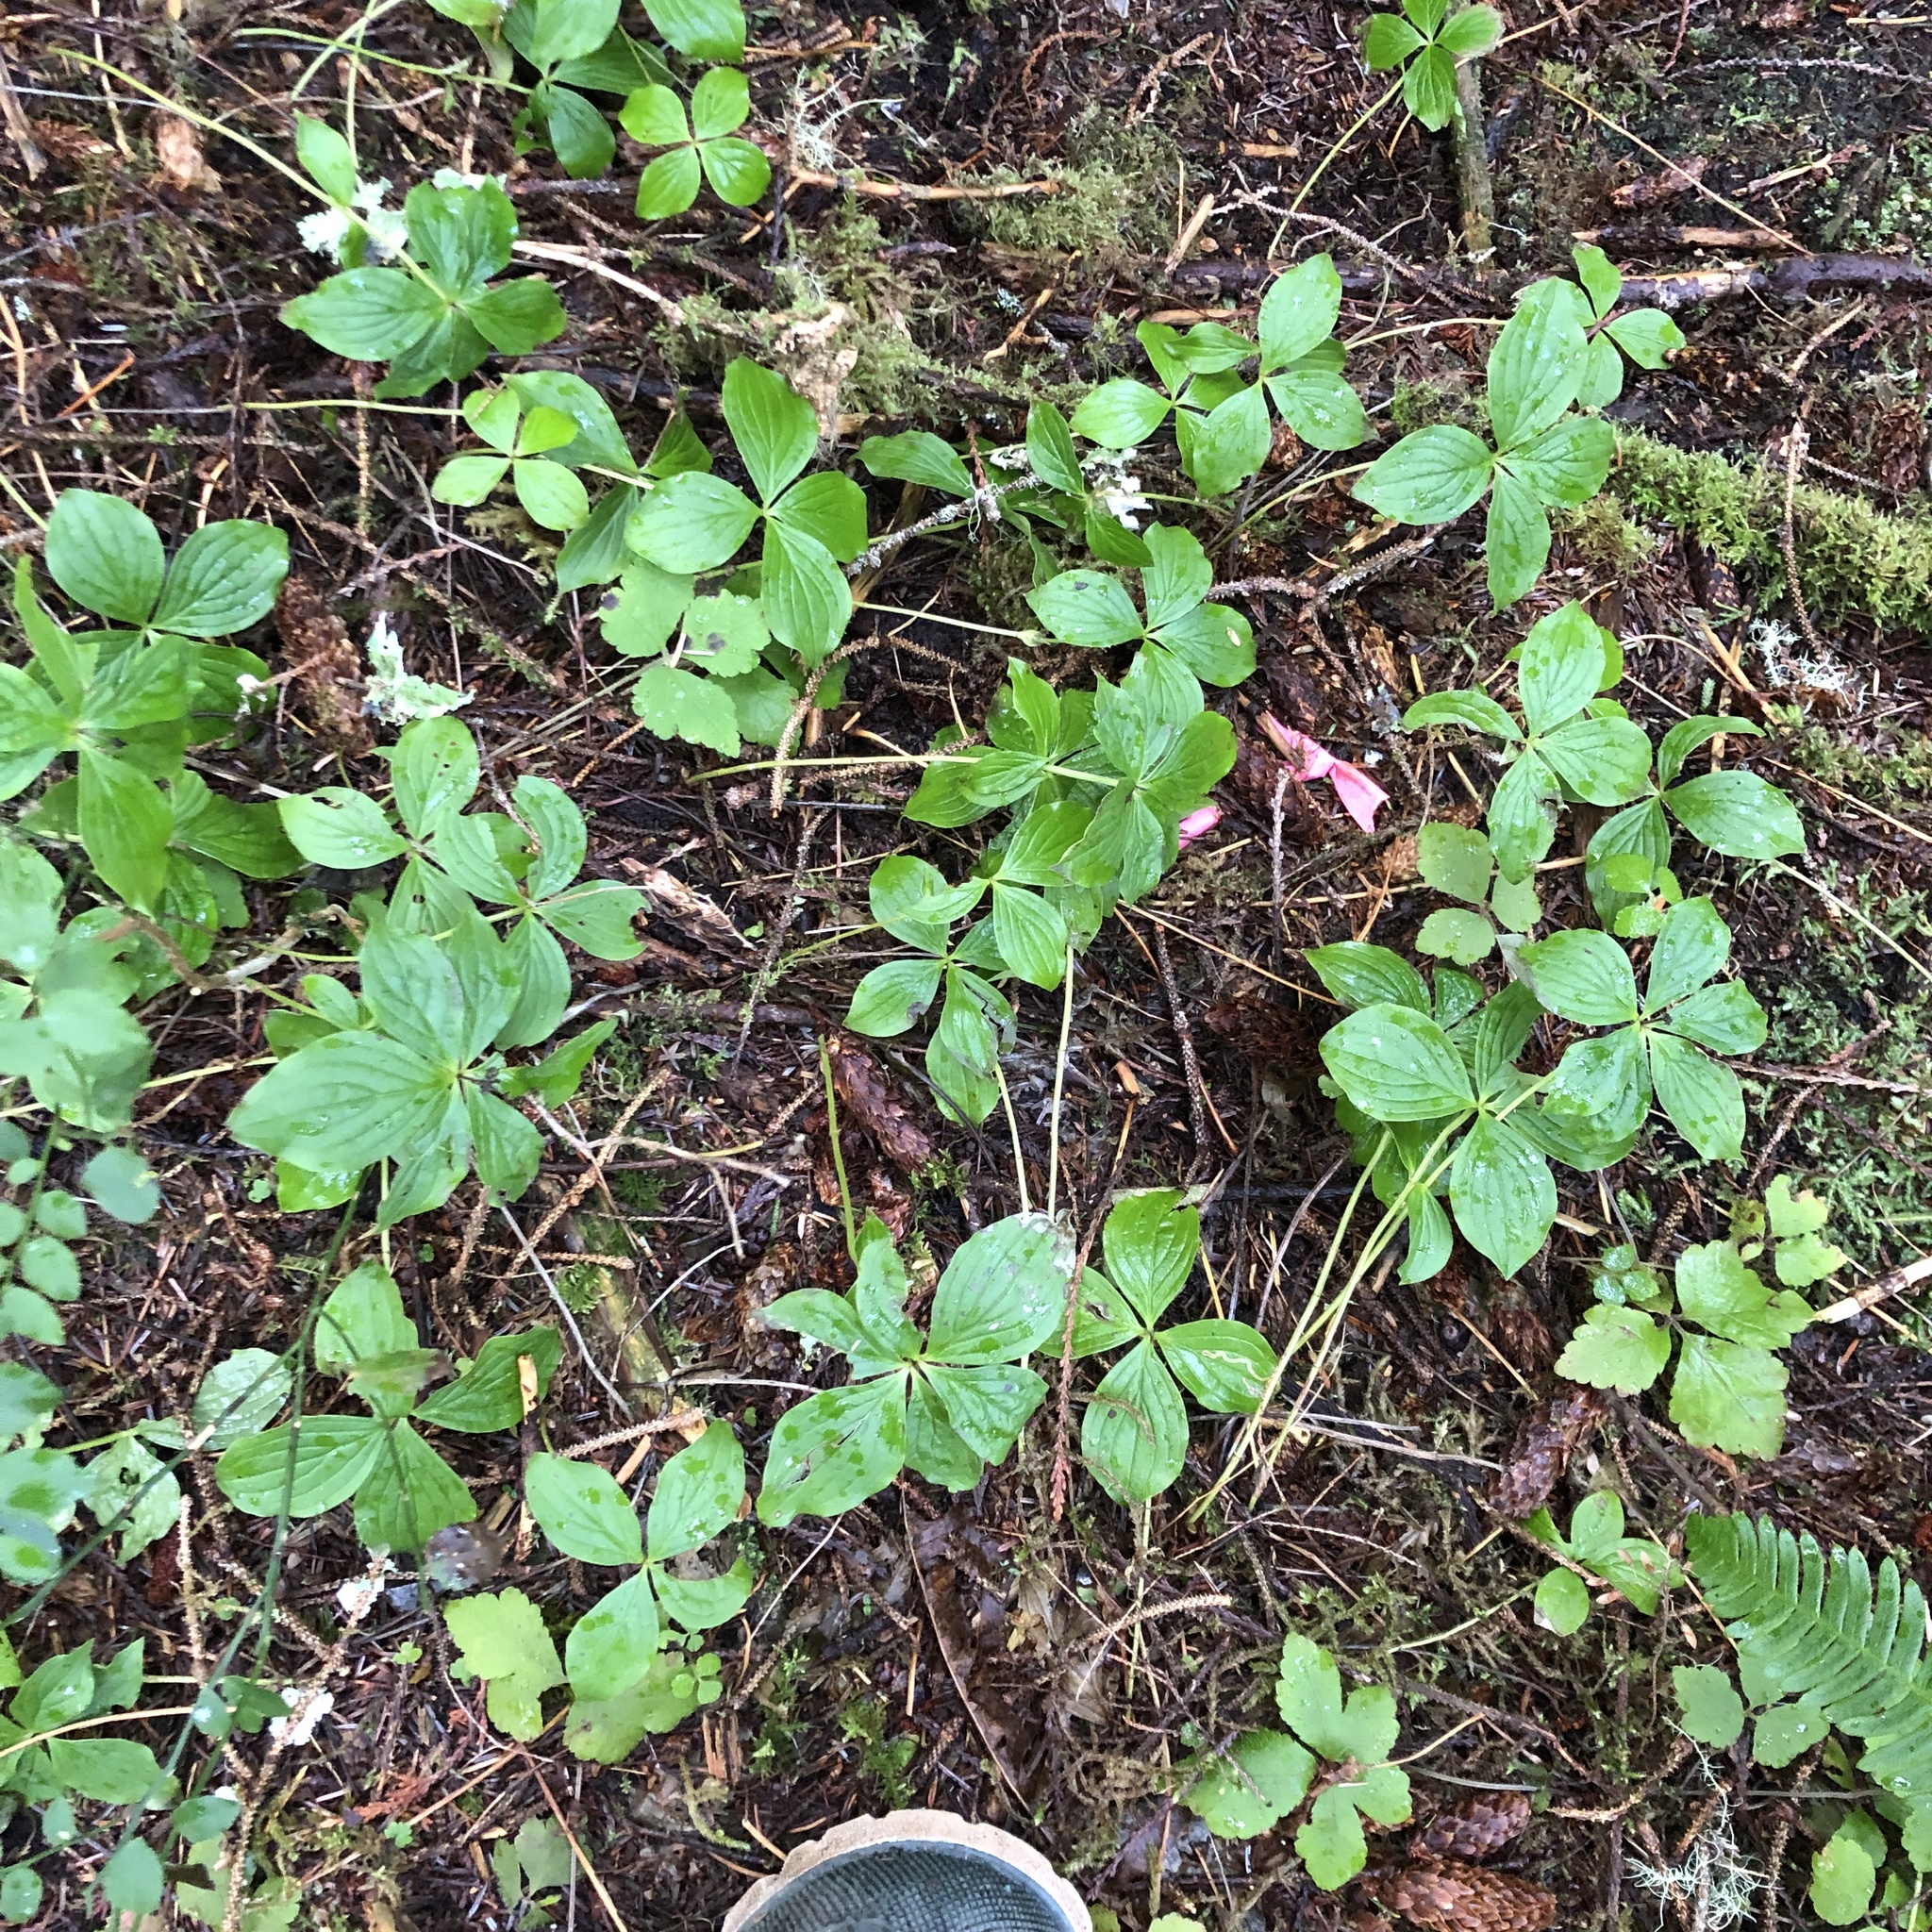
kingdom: Plantae
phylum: Tracheophyta
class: Magnoliopsida
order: Cornales
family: Cornaceae
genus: Cornus
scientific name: Cornus unalaschkensis
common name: Alaska bunchberry
